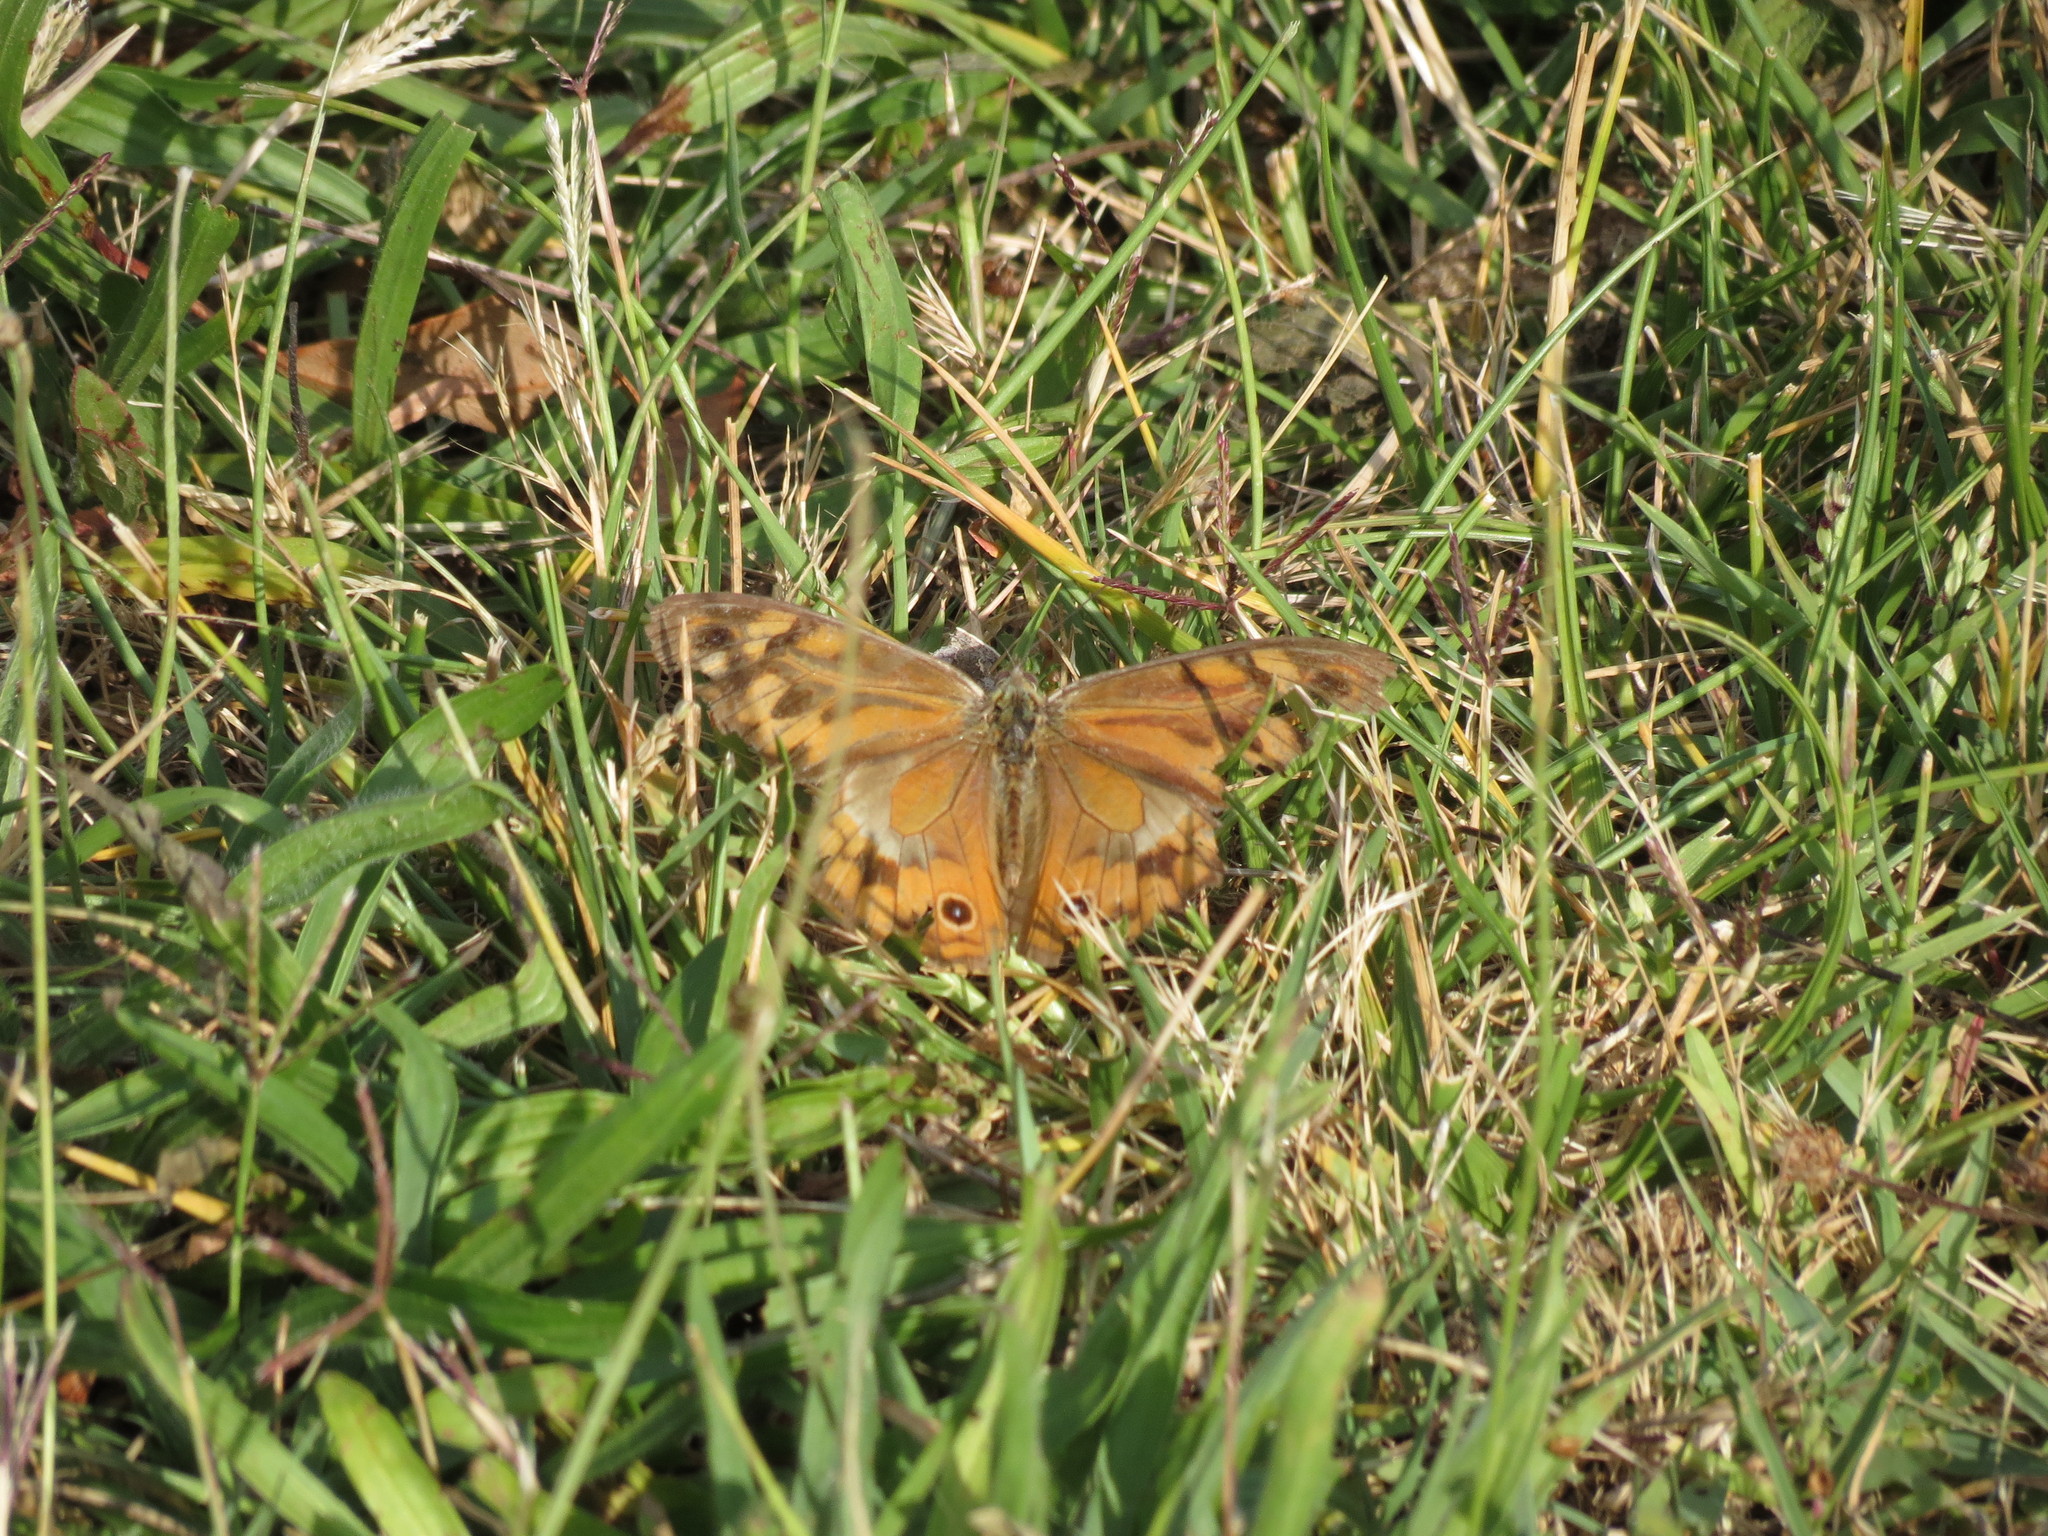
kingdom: Animalia
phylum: Arthropoda
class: Insecta
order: Lepidoptera
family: Nymphalidae
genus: Heteronympha
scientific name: Heteronympha merope
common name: Common brown
